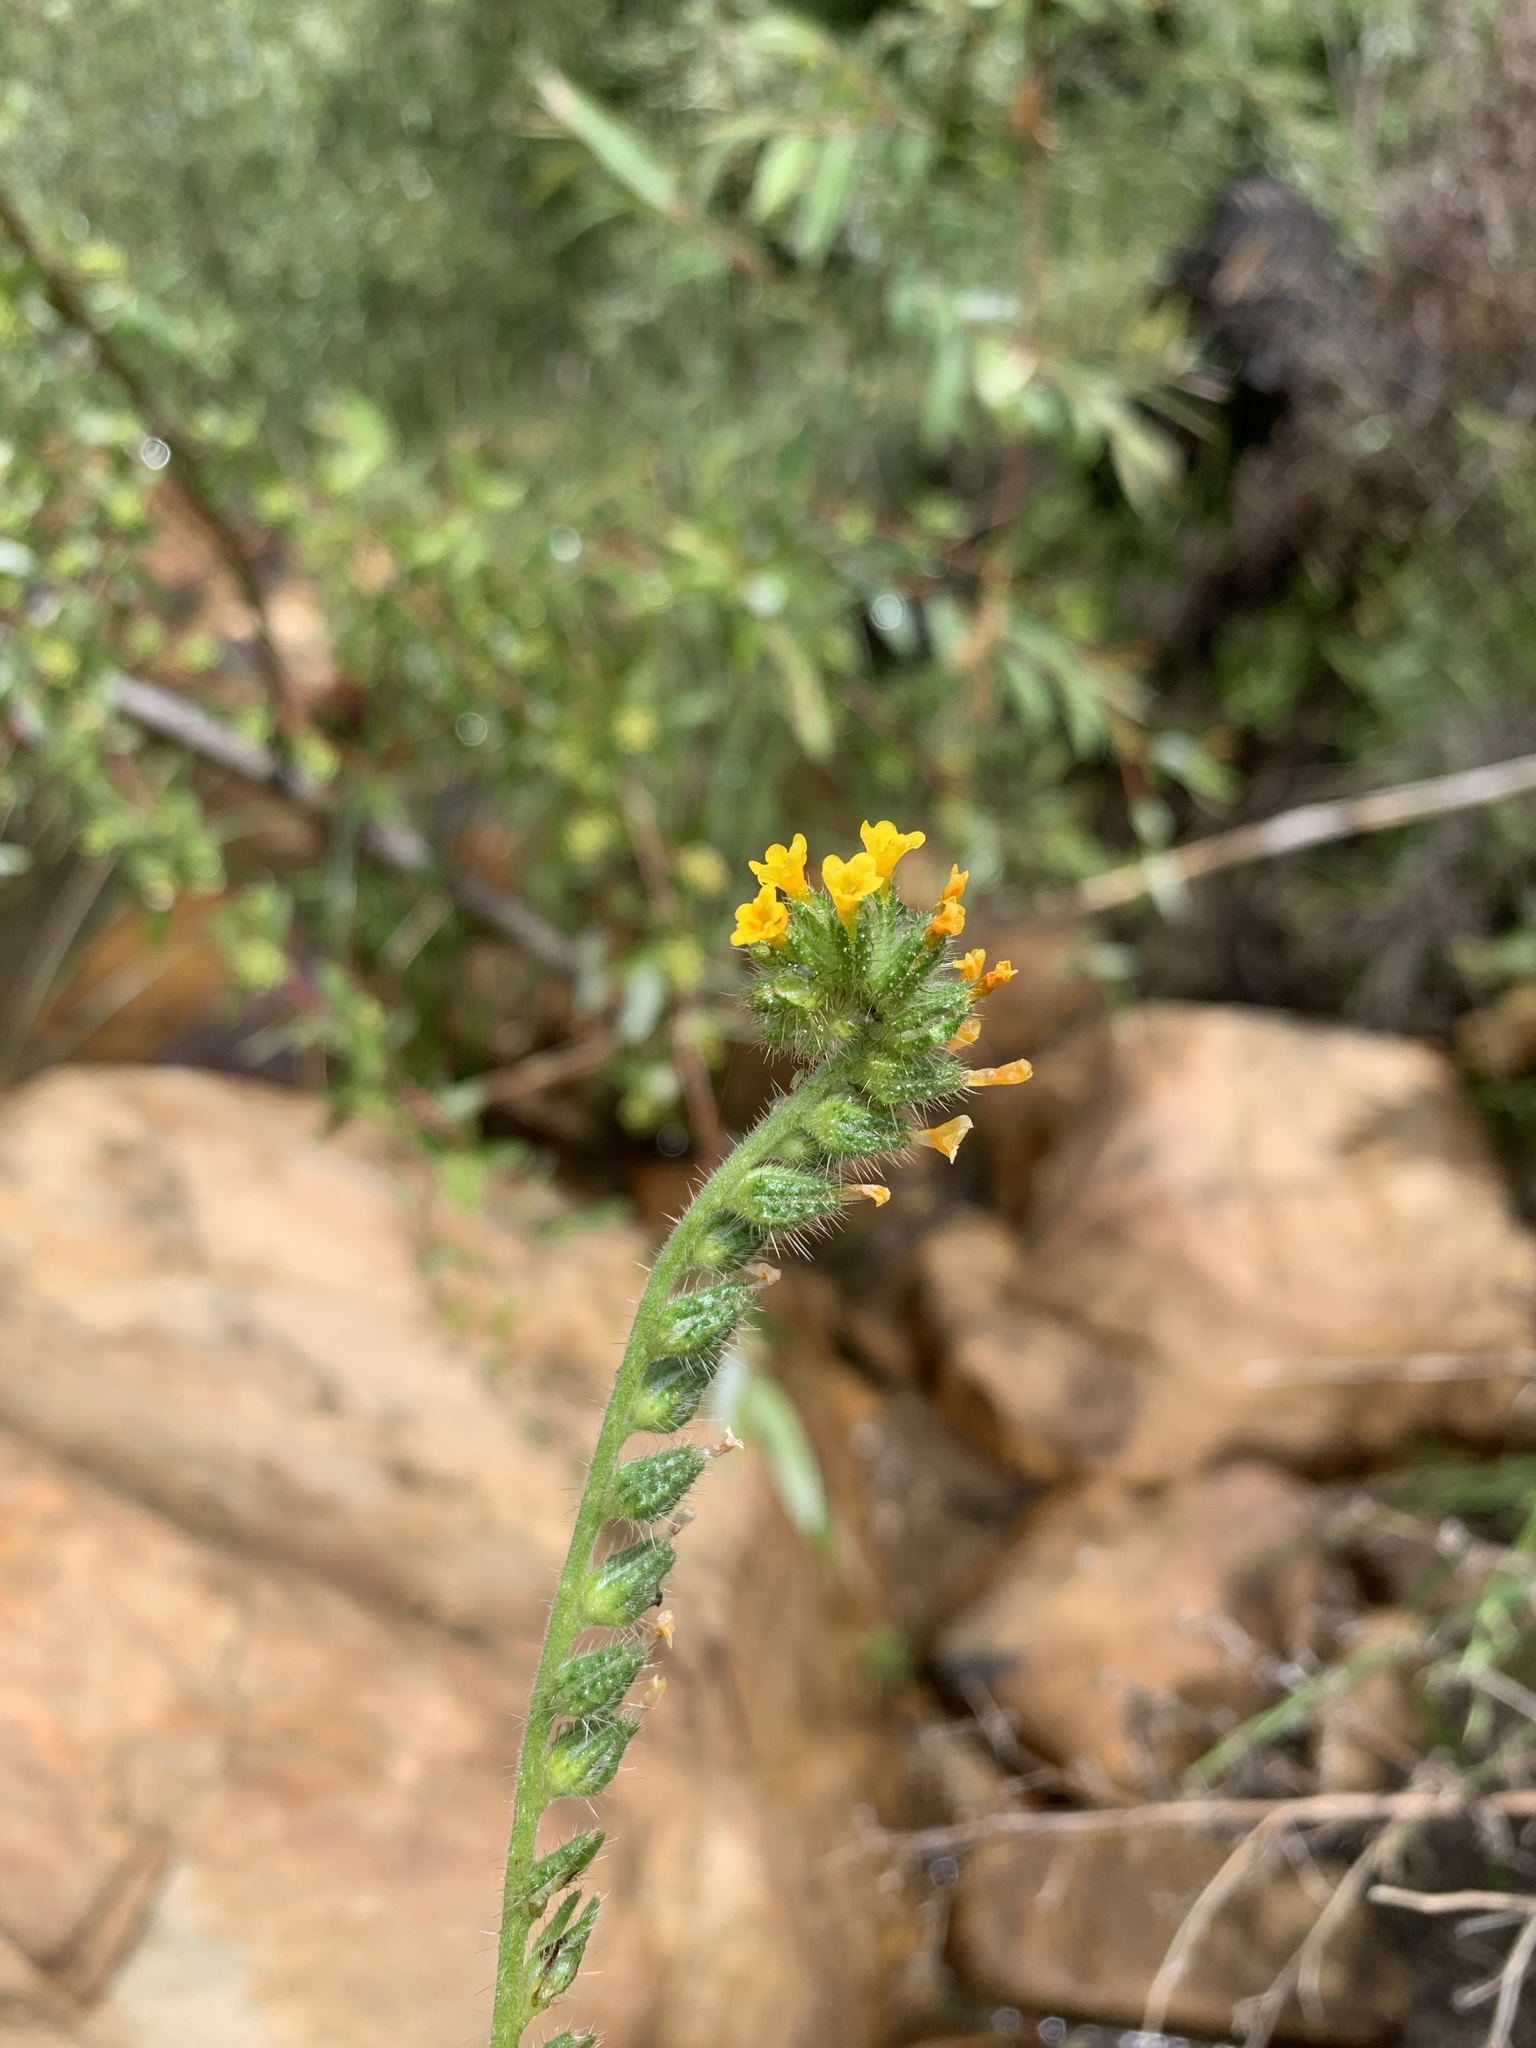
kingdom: Plantae
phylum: Tracheophyta
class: Magnoliopsida
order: Boraginales
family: Boraginaceae
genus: Amsinckia
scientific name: Amsinckia menziesii
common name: Menzies' fiddleneck
